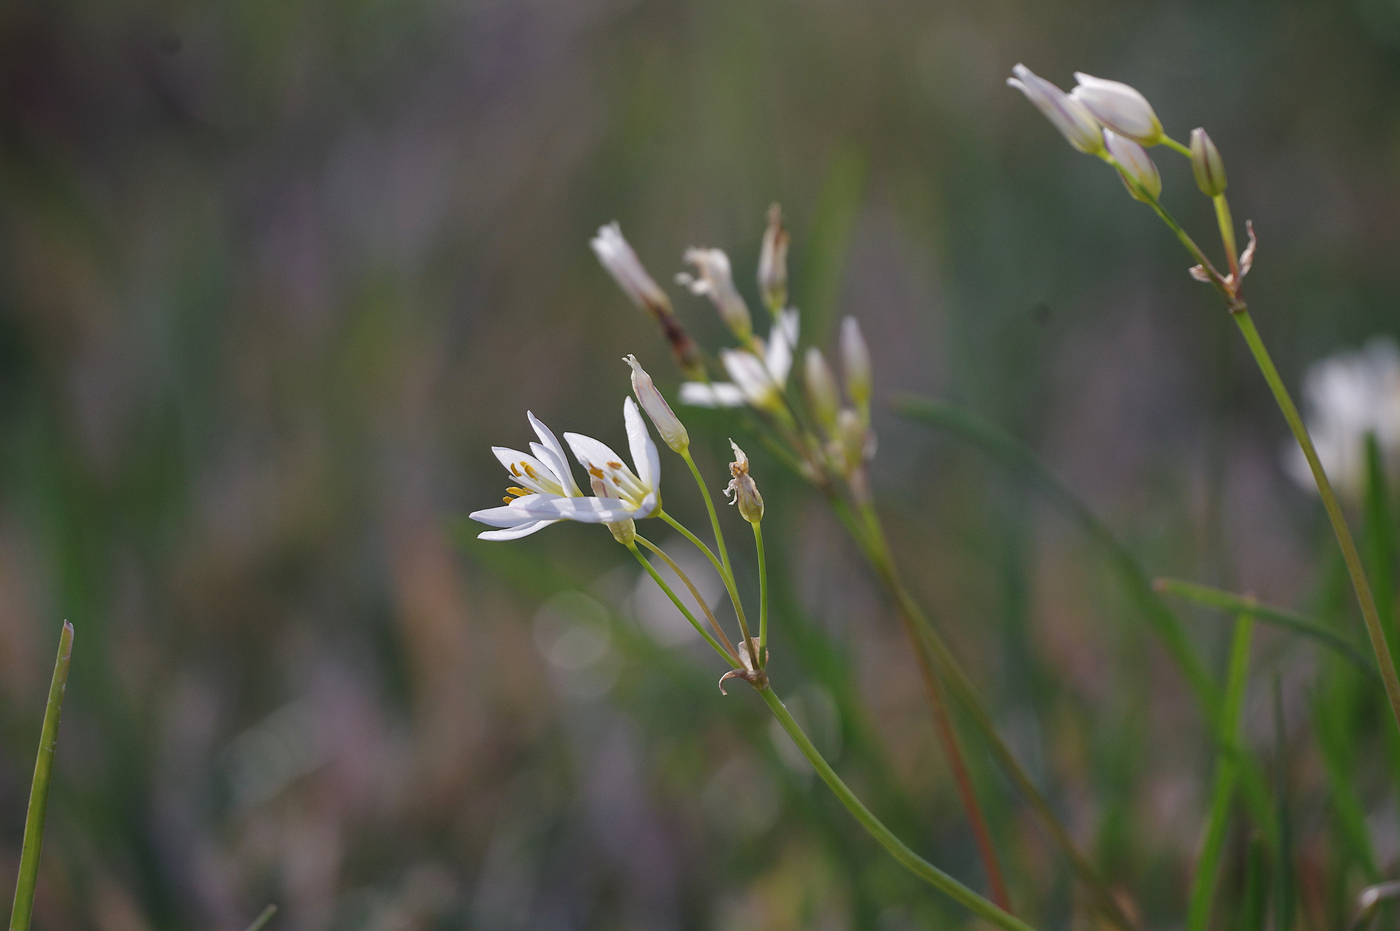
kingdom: Plantae
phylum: Tracheophyta
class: Liliopsida
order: Asparagales
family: Amaryllidaceae
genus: Nothoscordum
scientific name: Nothoscordum bivalve
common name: Crow-poison
